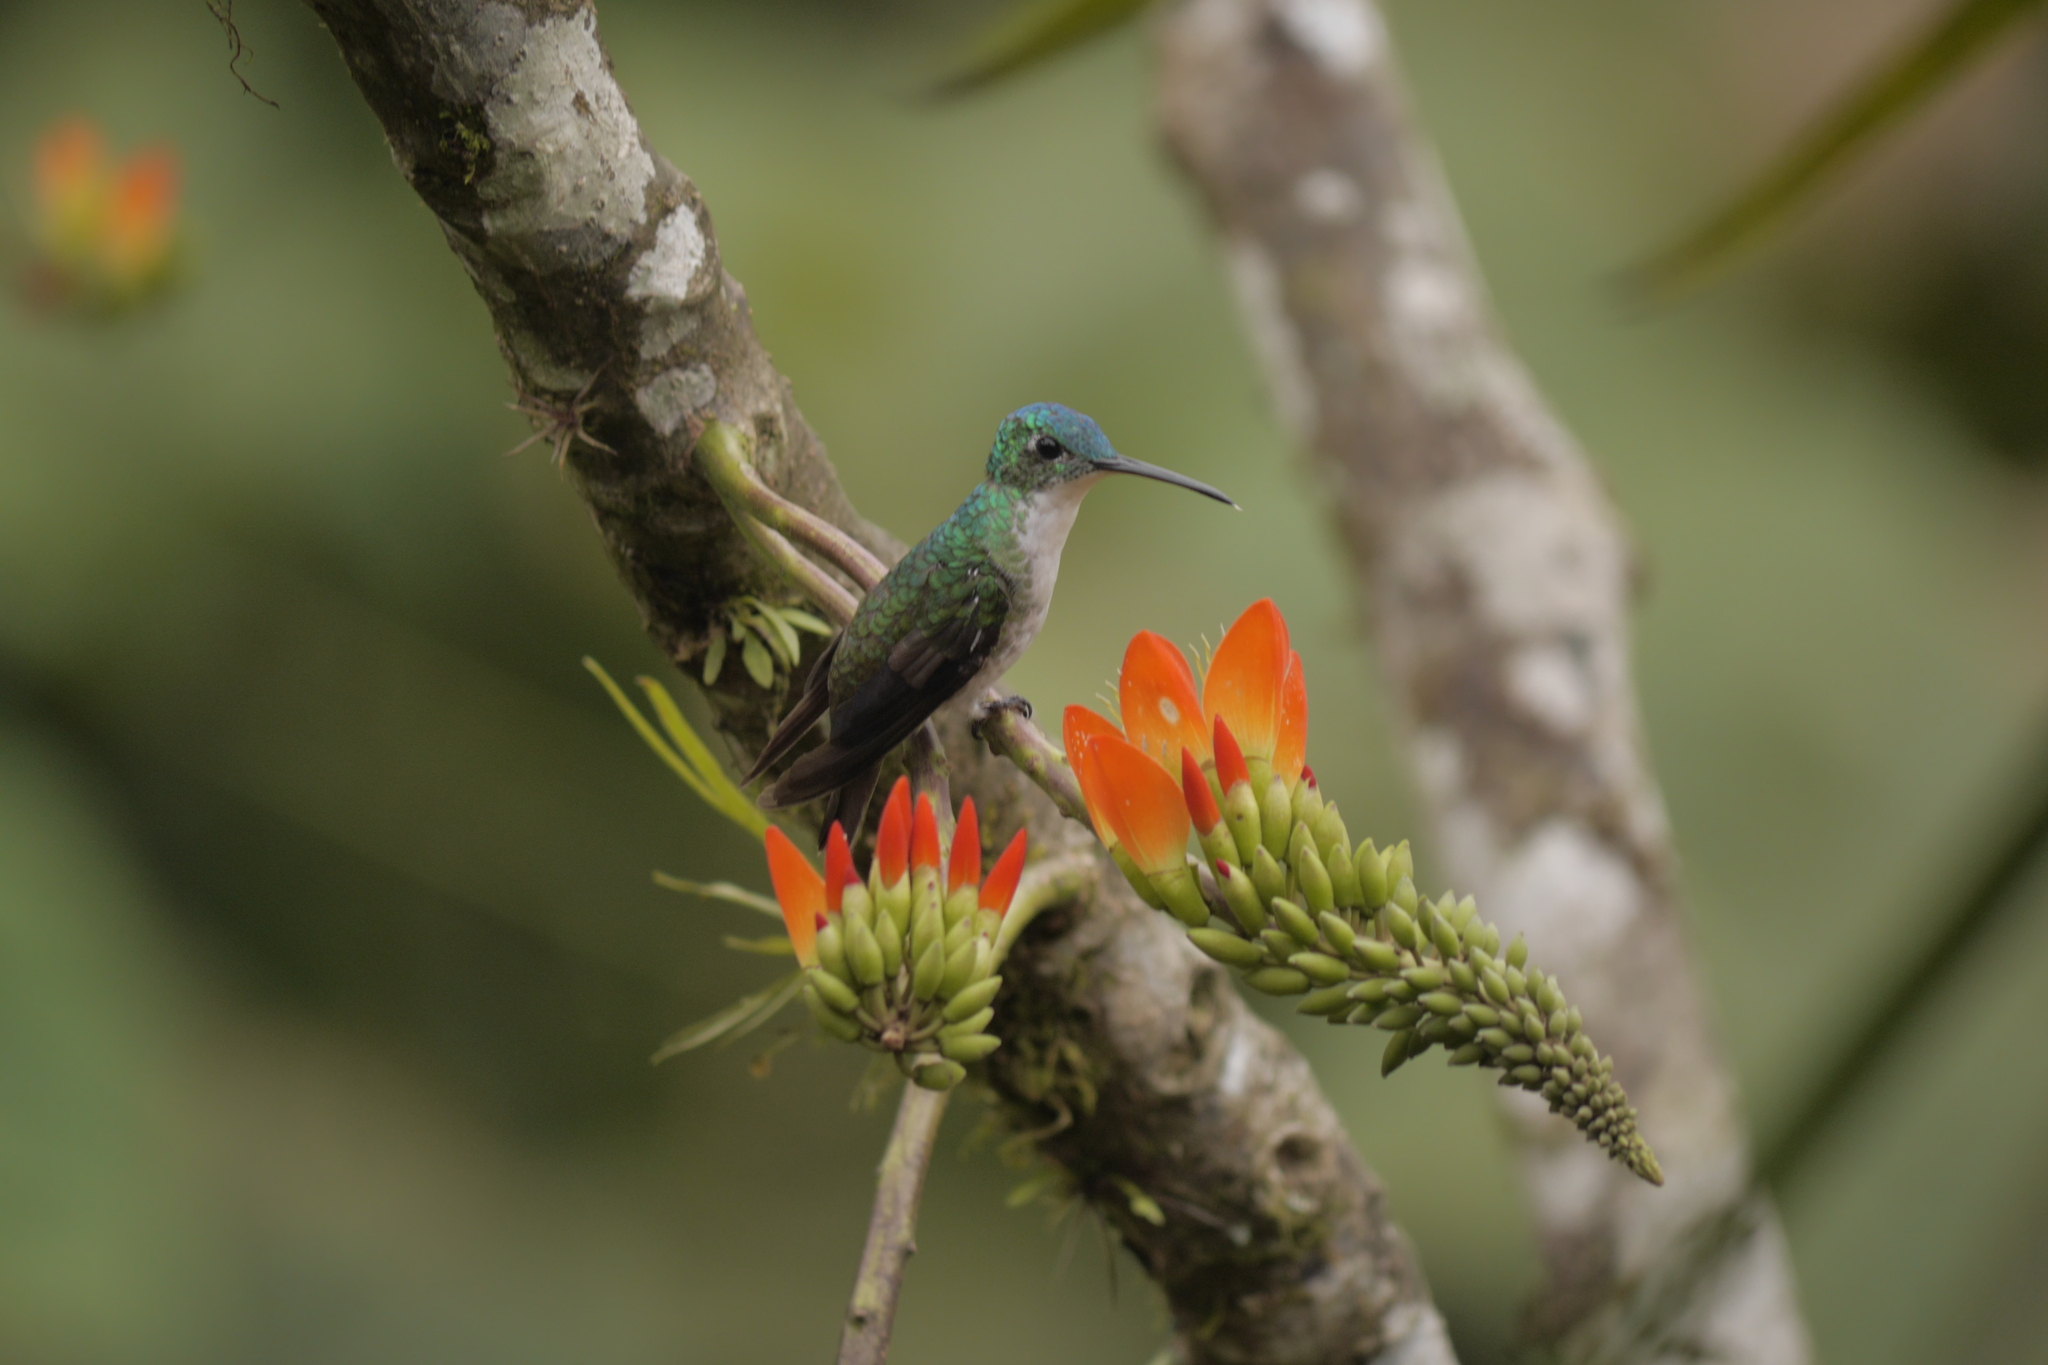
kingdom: Animalia
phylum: Chordata
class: Aves
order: Apodiformes
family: Trochilidae
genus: Uranomitra
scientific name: Uranomitra franciae
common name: Andean emerald
